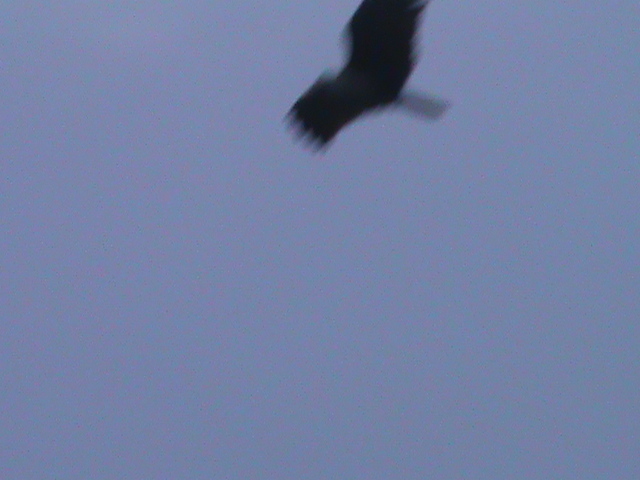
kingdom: Animalia
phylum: Chordata
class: Aves
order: Accipitriformes
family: Accipitridae
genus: Haliastur
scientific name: Haliastur indus
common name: Brahminy kite
